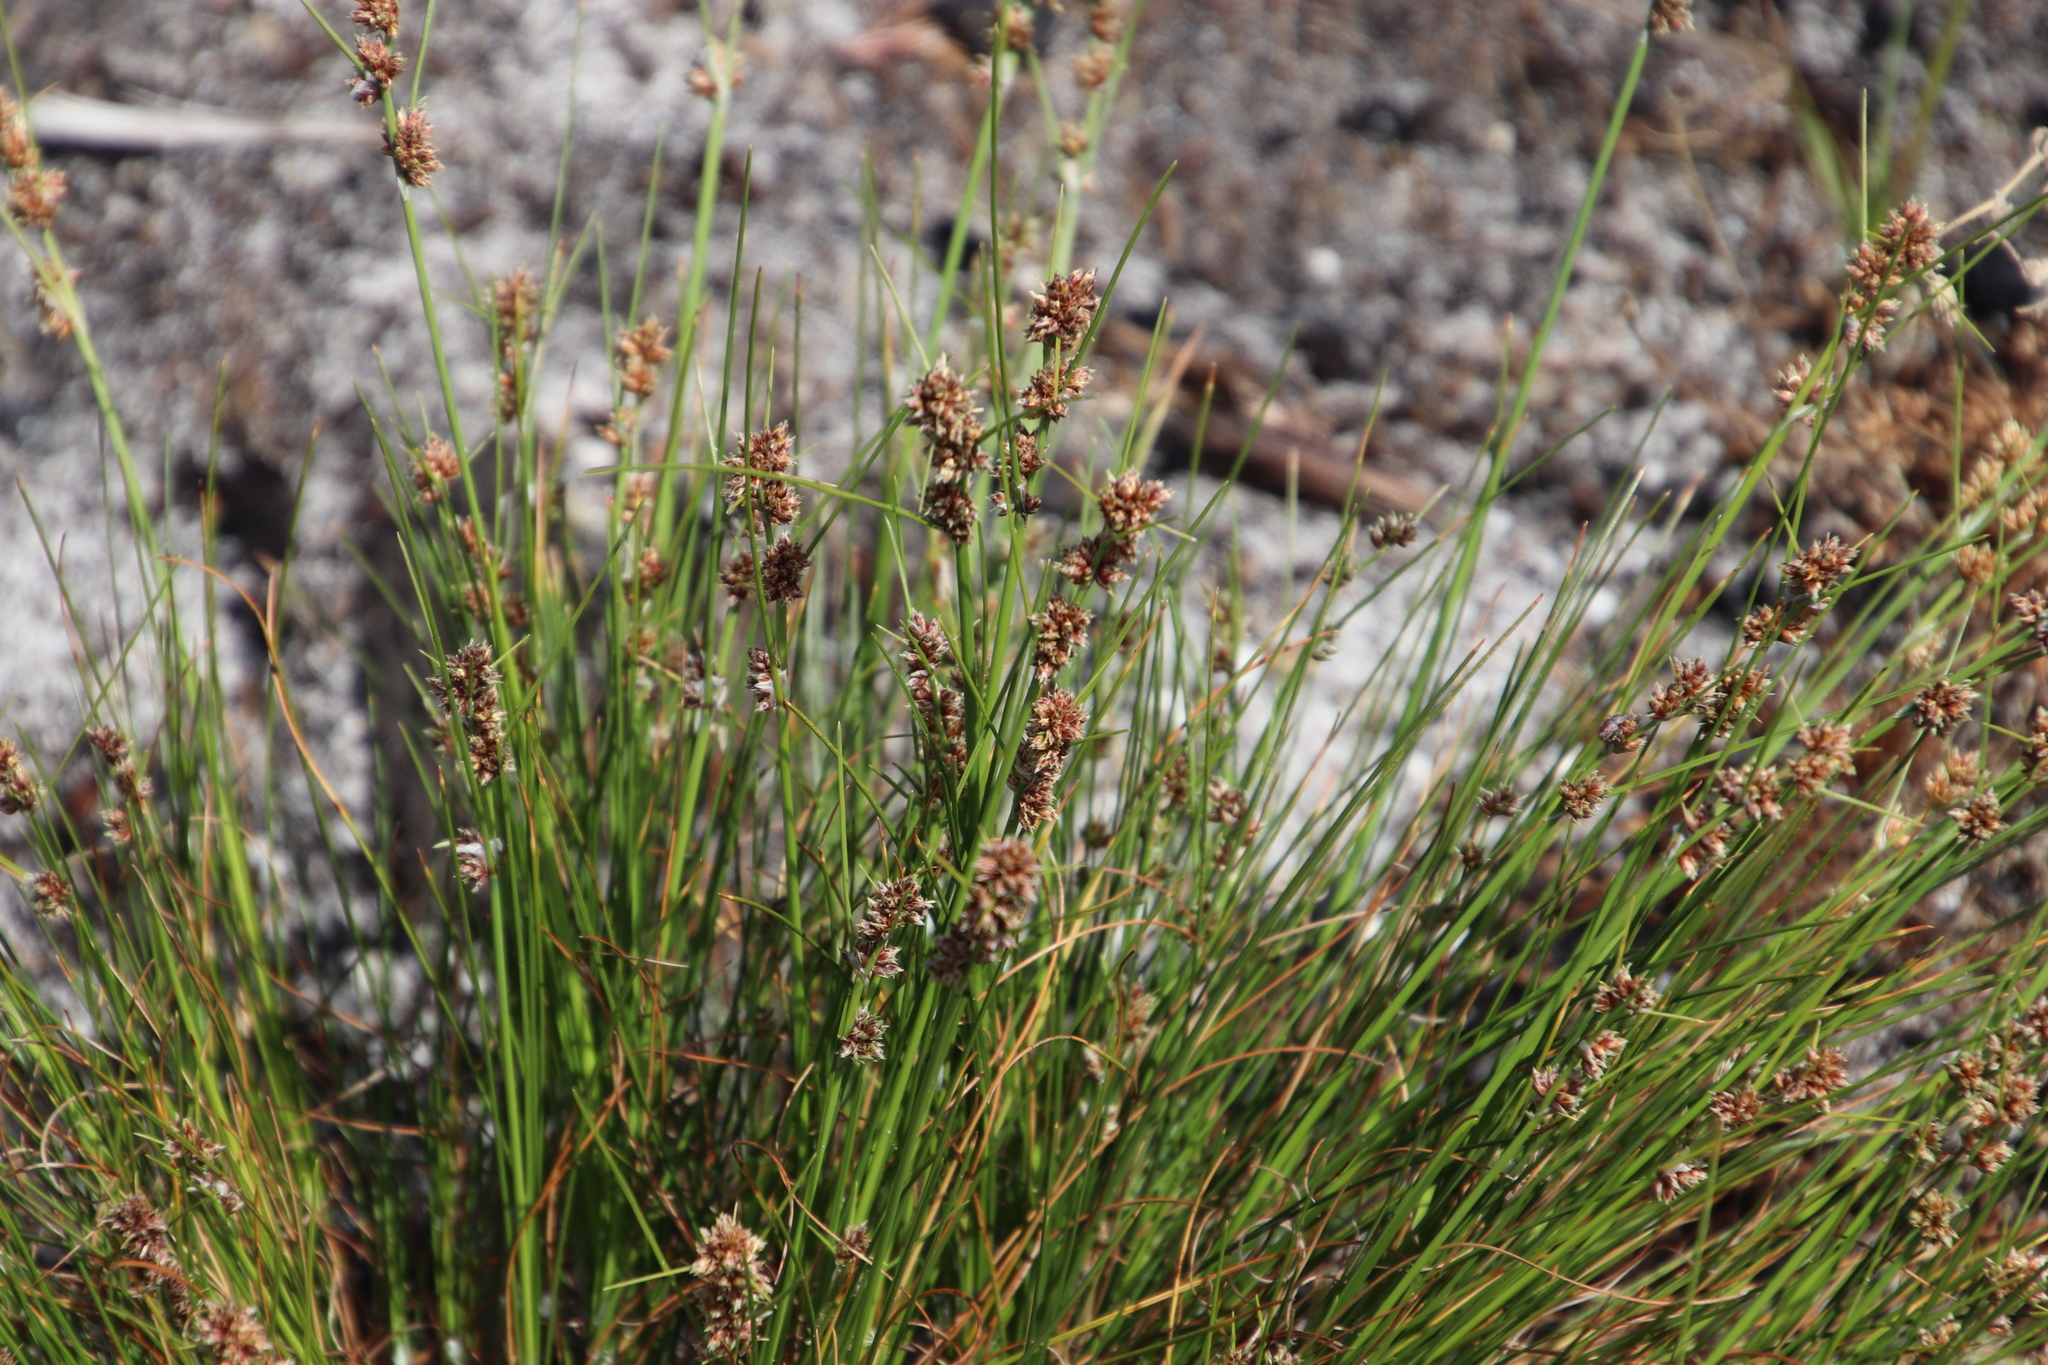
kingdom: Plantae
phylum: Tracheophyta
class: Liliopsida
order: Poales
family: Cyperaceae
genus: Ficinia
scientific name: Ficinia bulbosa
